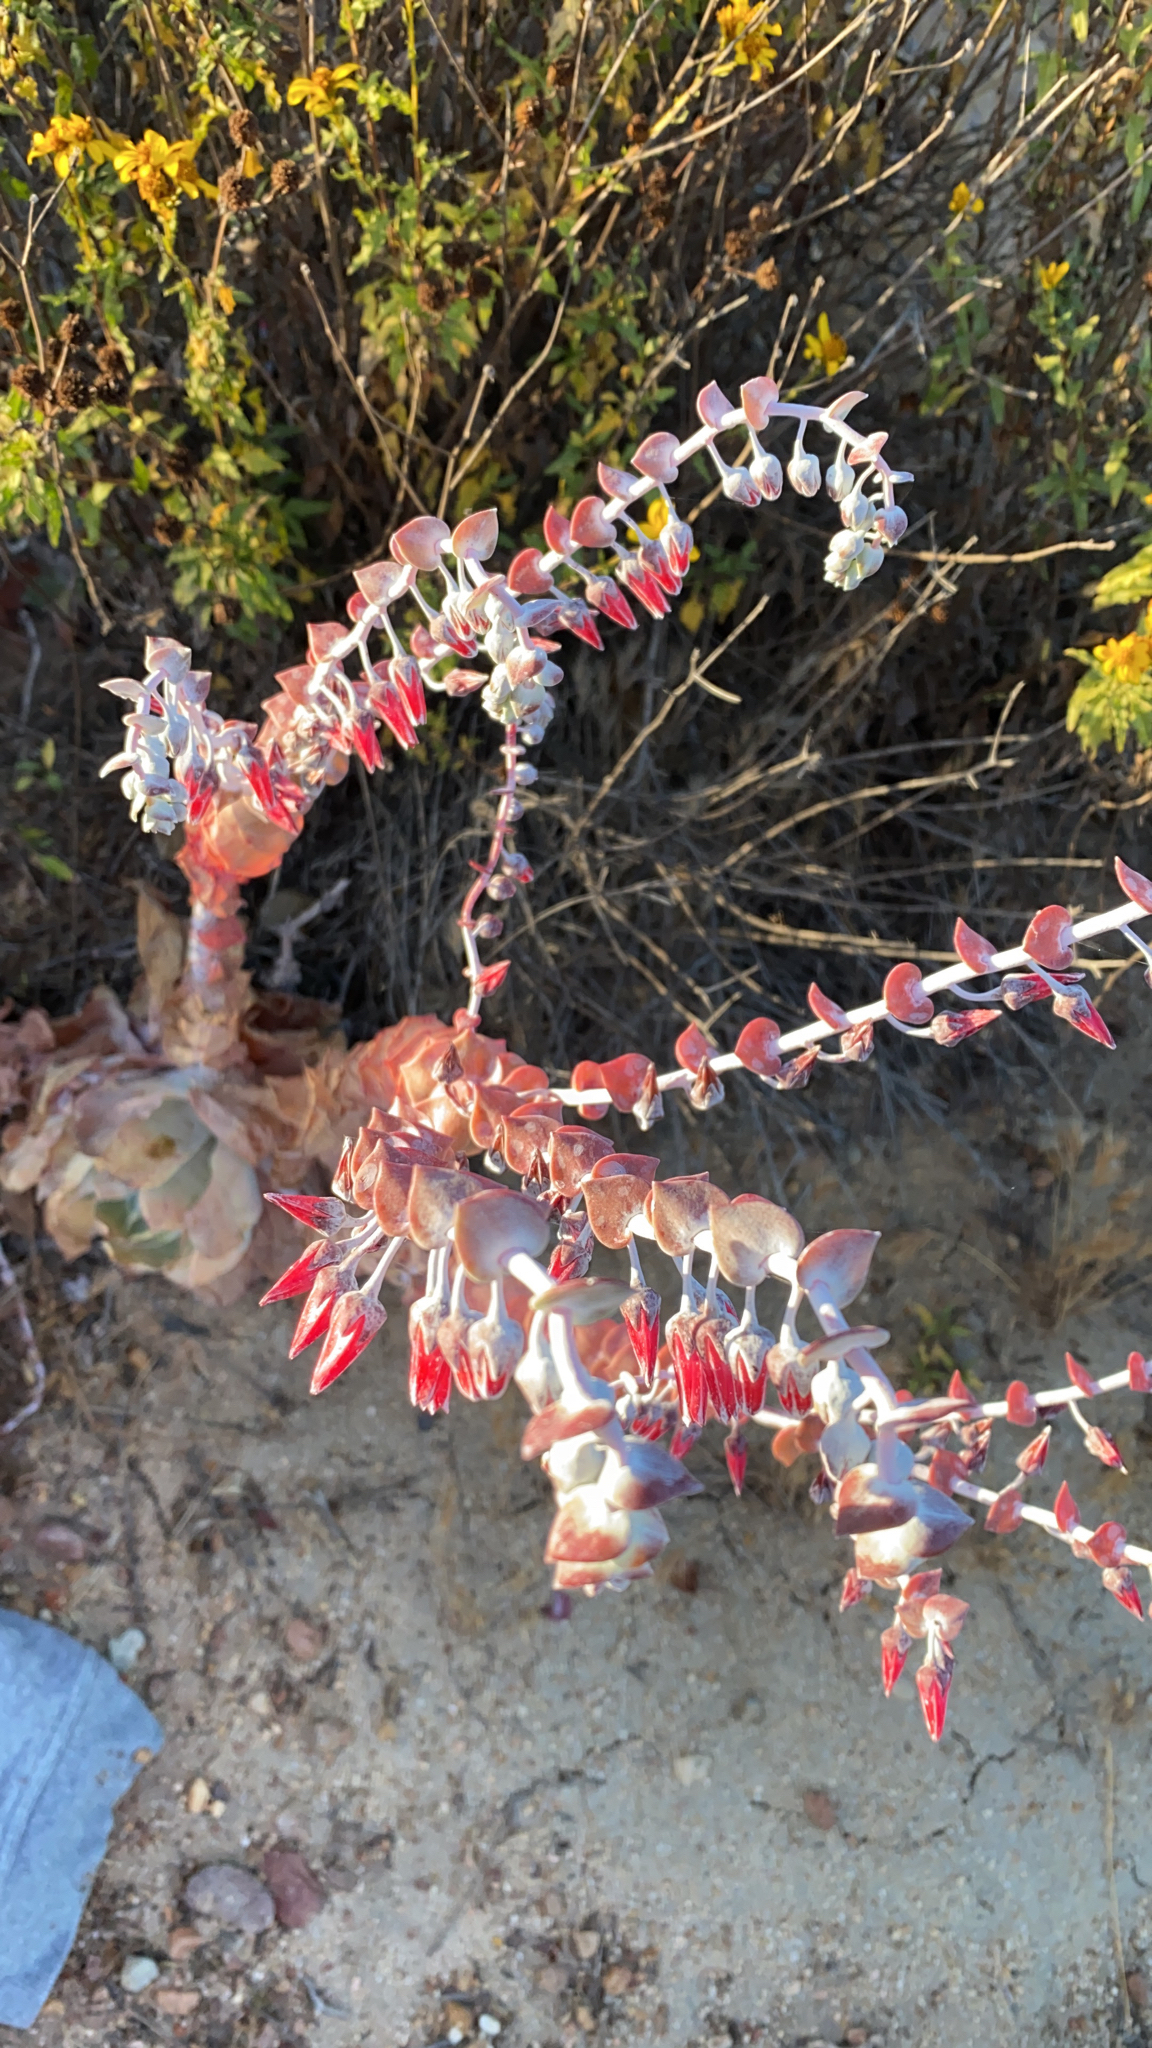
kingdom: Plantae
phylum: Tracheophyta
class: Magnoliopsida
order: Saxifragales
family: Crassulaceae
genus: Dudleya
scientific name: Dudleya pulverulenta
